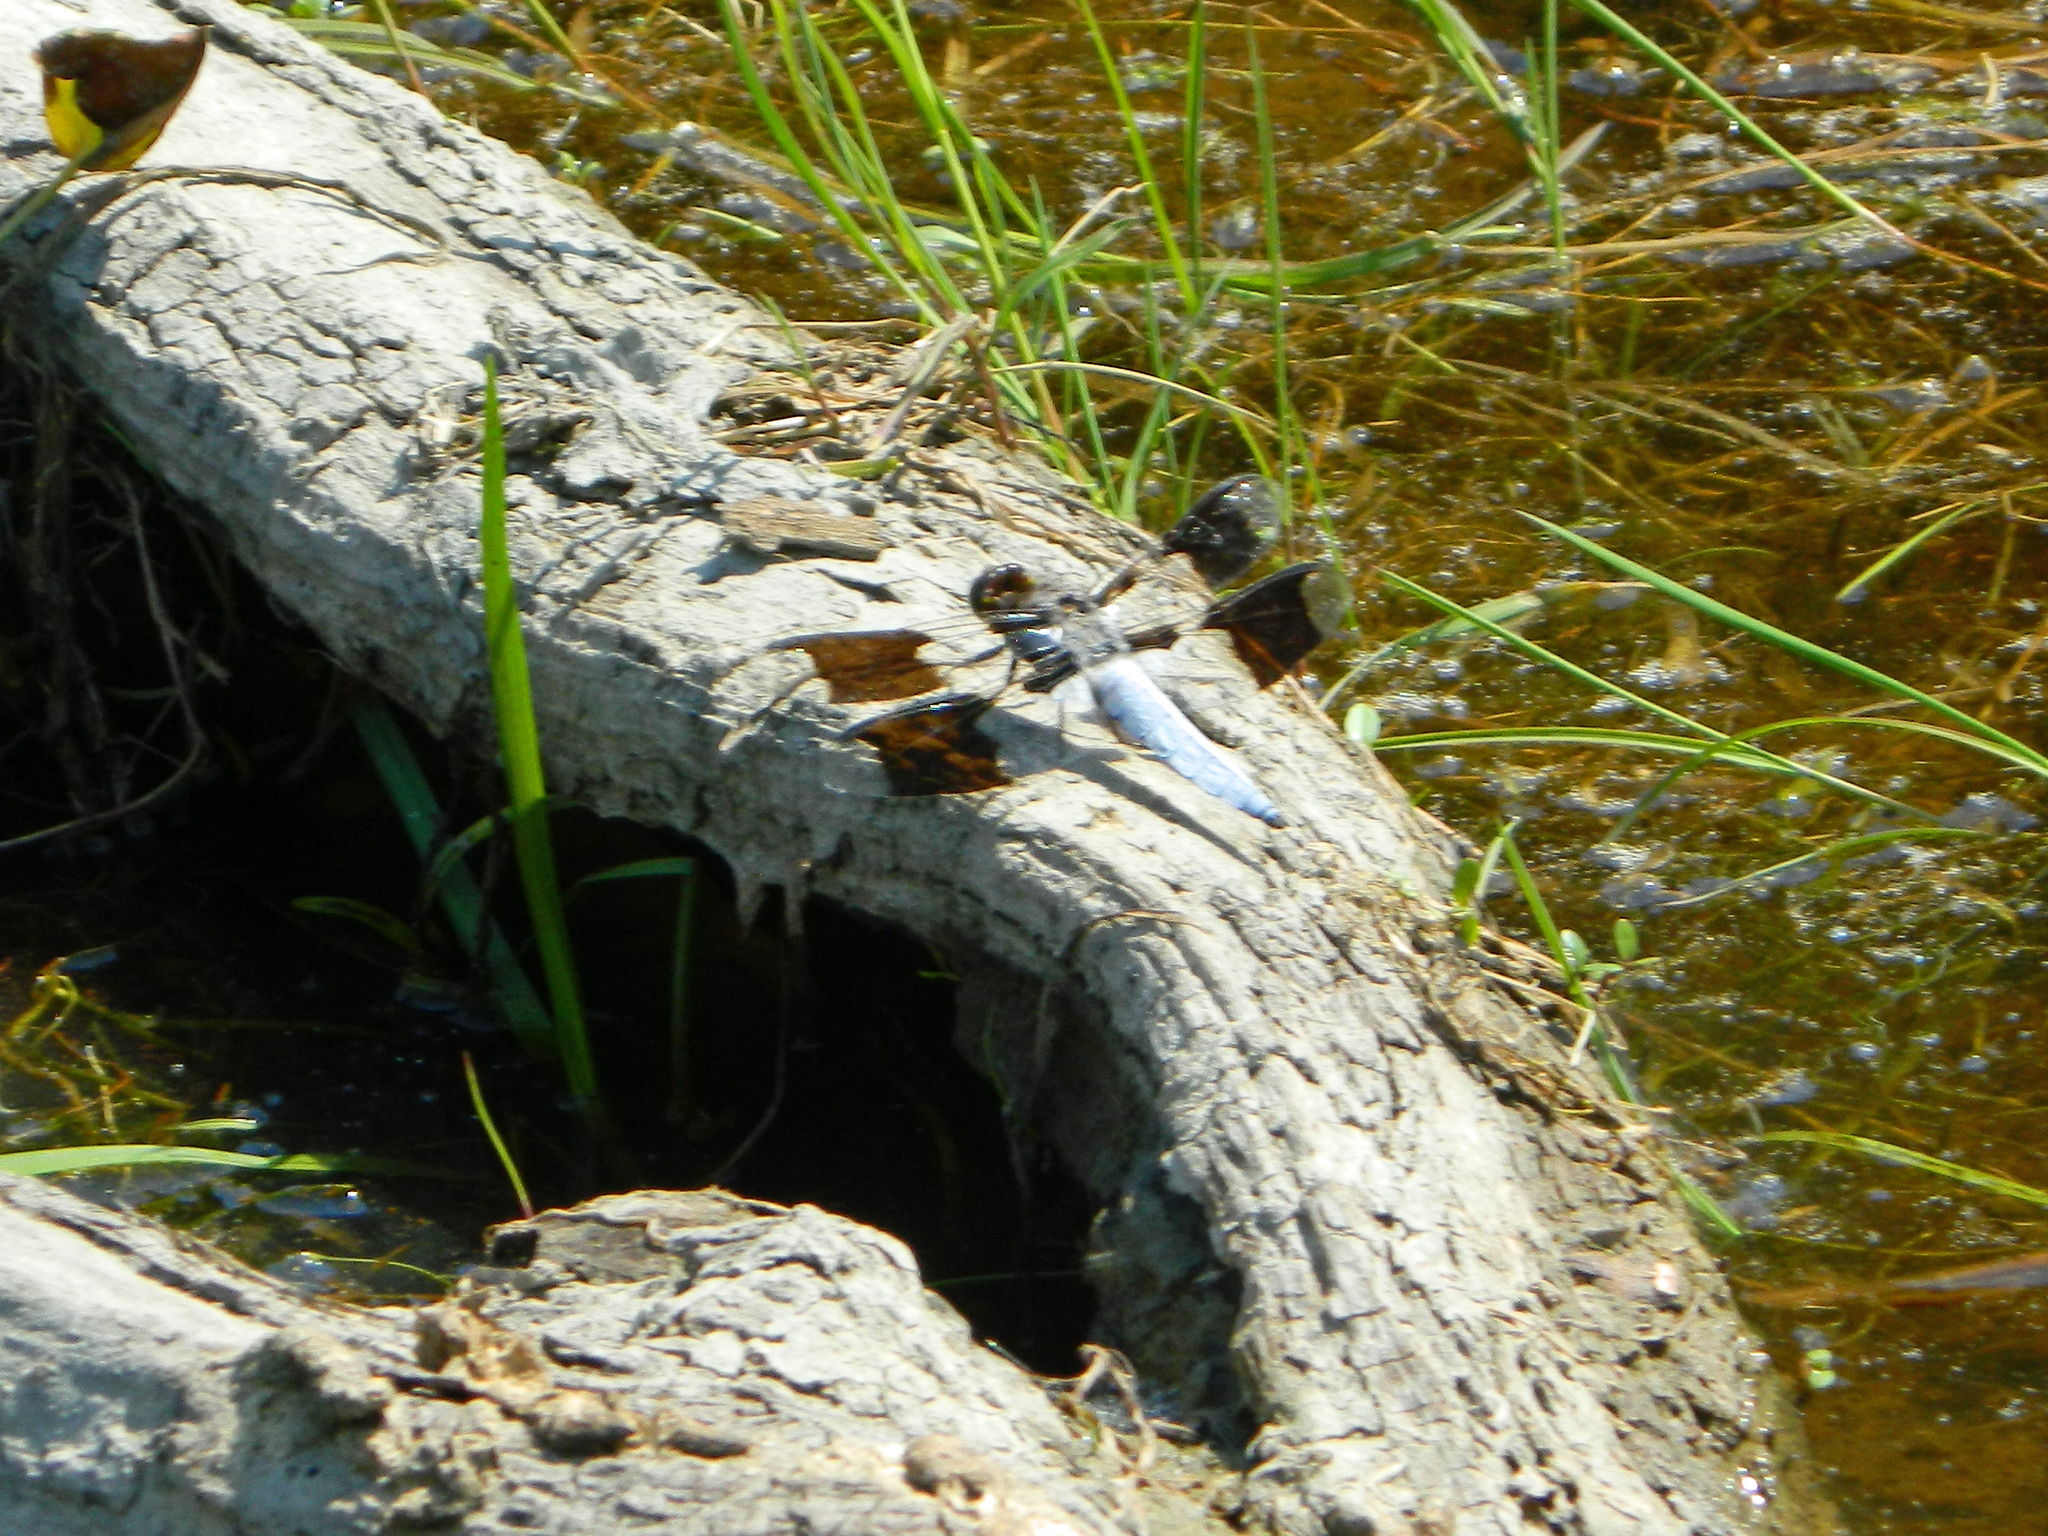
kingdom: Animalia
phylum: Arthropoda
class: Insecta
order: Odonata
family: Libellulidae
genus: Plathemis
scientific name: Plathemis lydia
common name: Common whitetail
